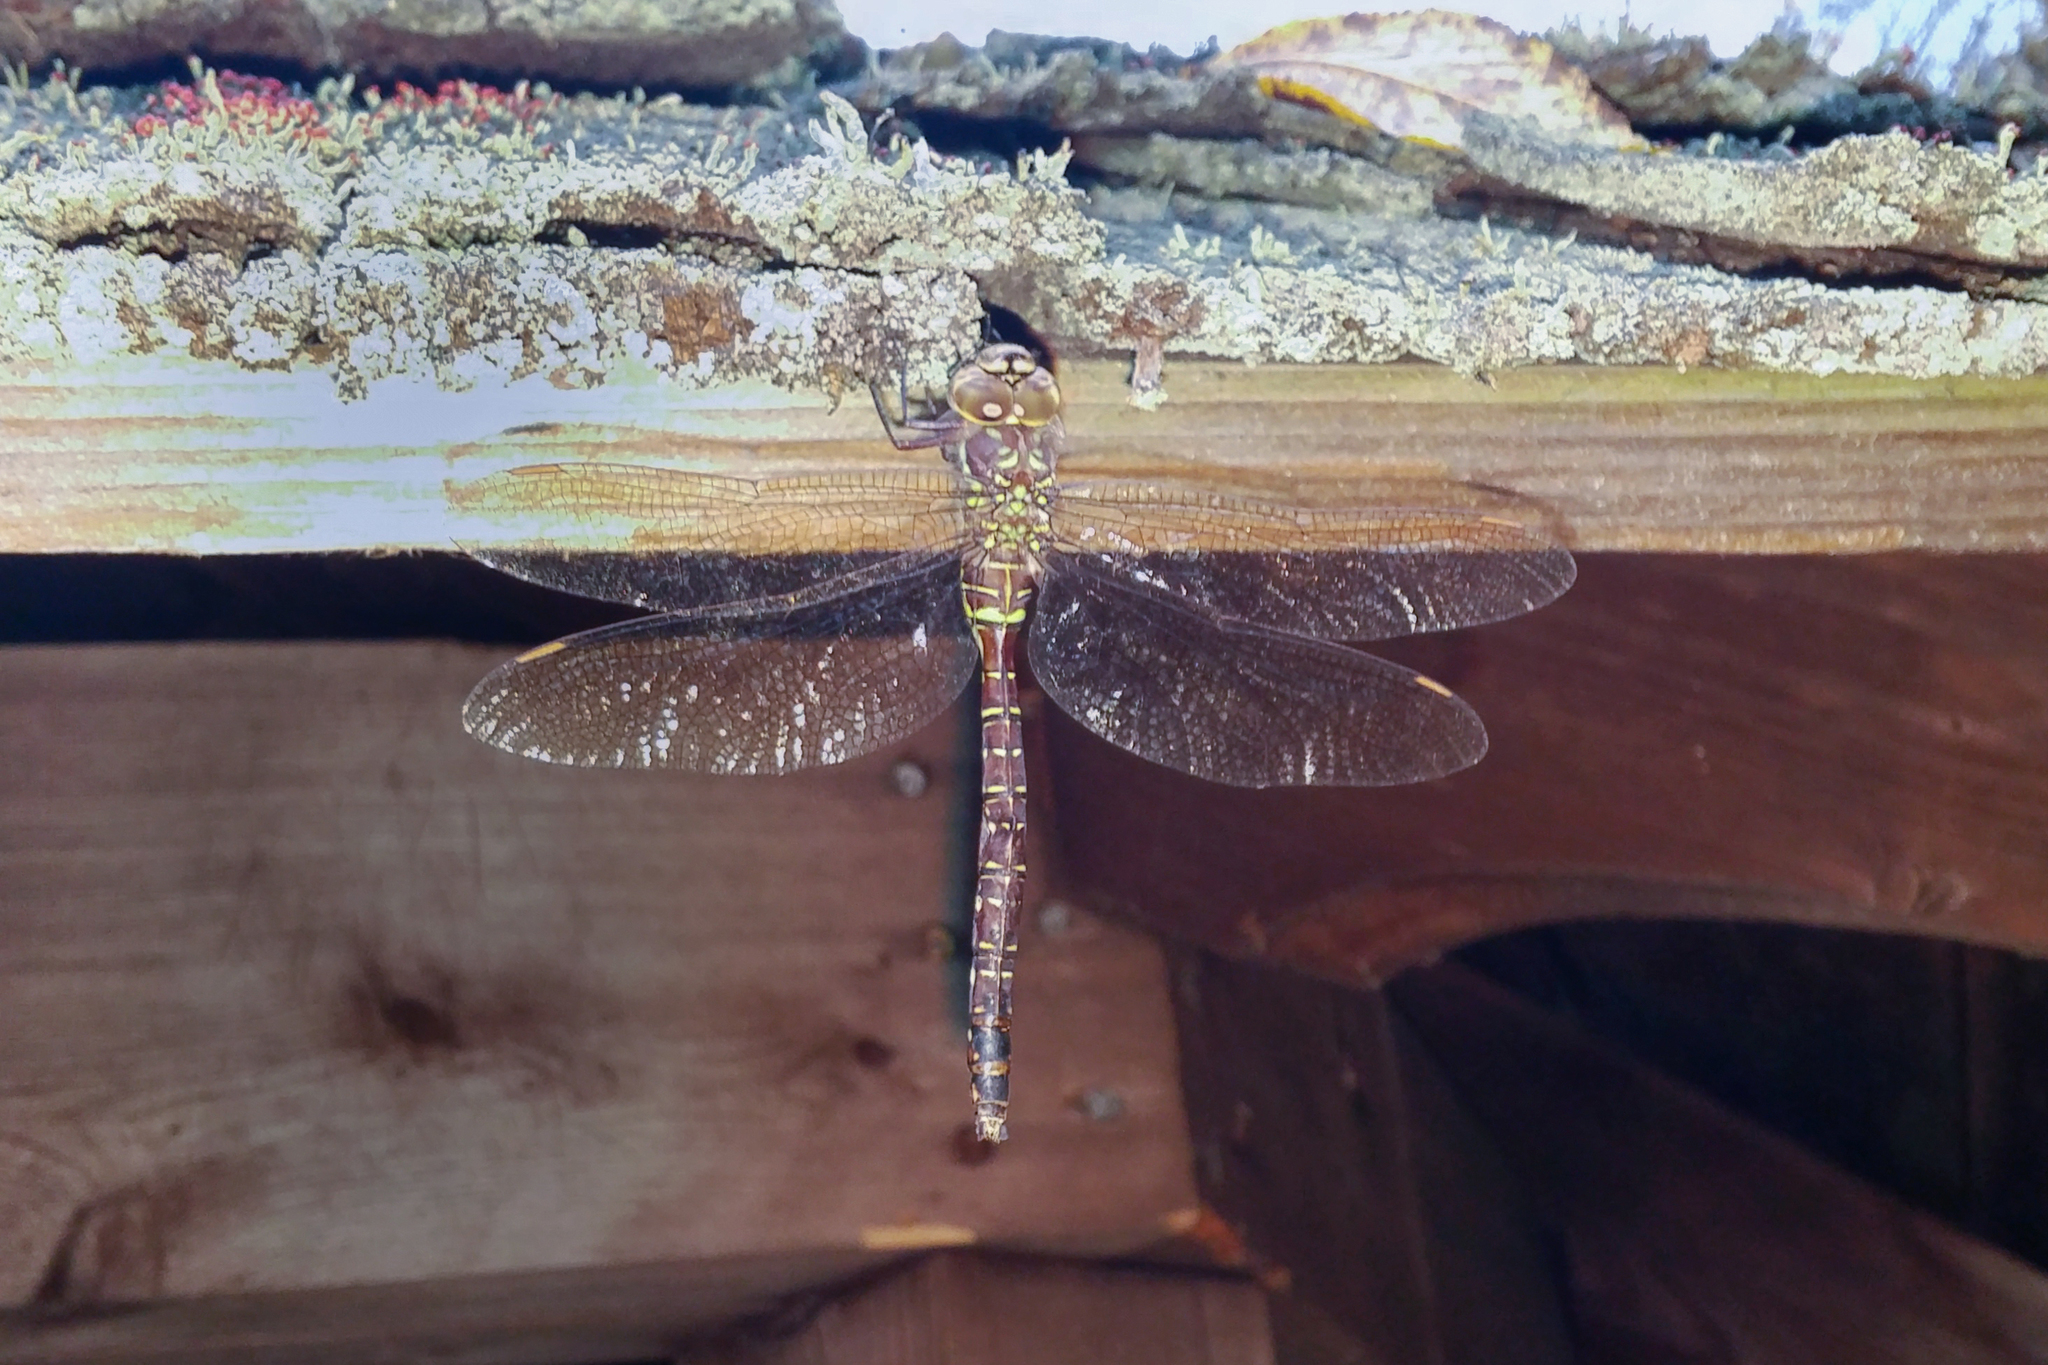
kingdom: Animalia
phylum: Arthropoda
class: Insecta
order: Odonata
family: Aeshnidae
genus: Aeshna
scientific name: Aeshna umbrosa
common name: Shadow darner
